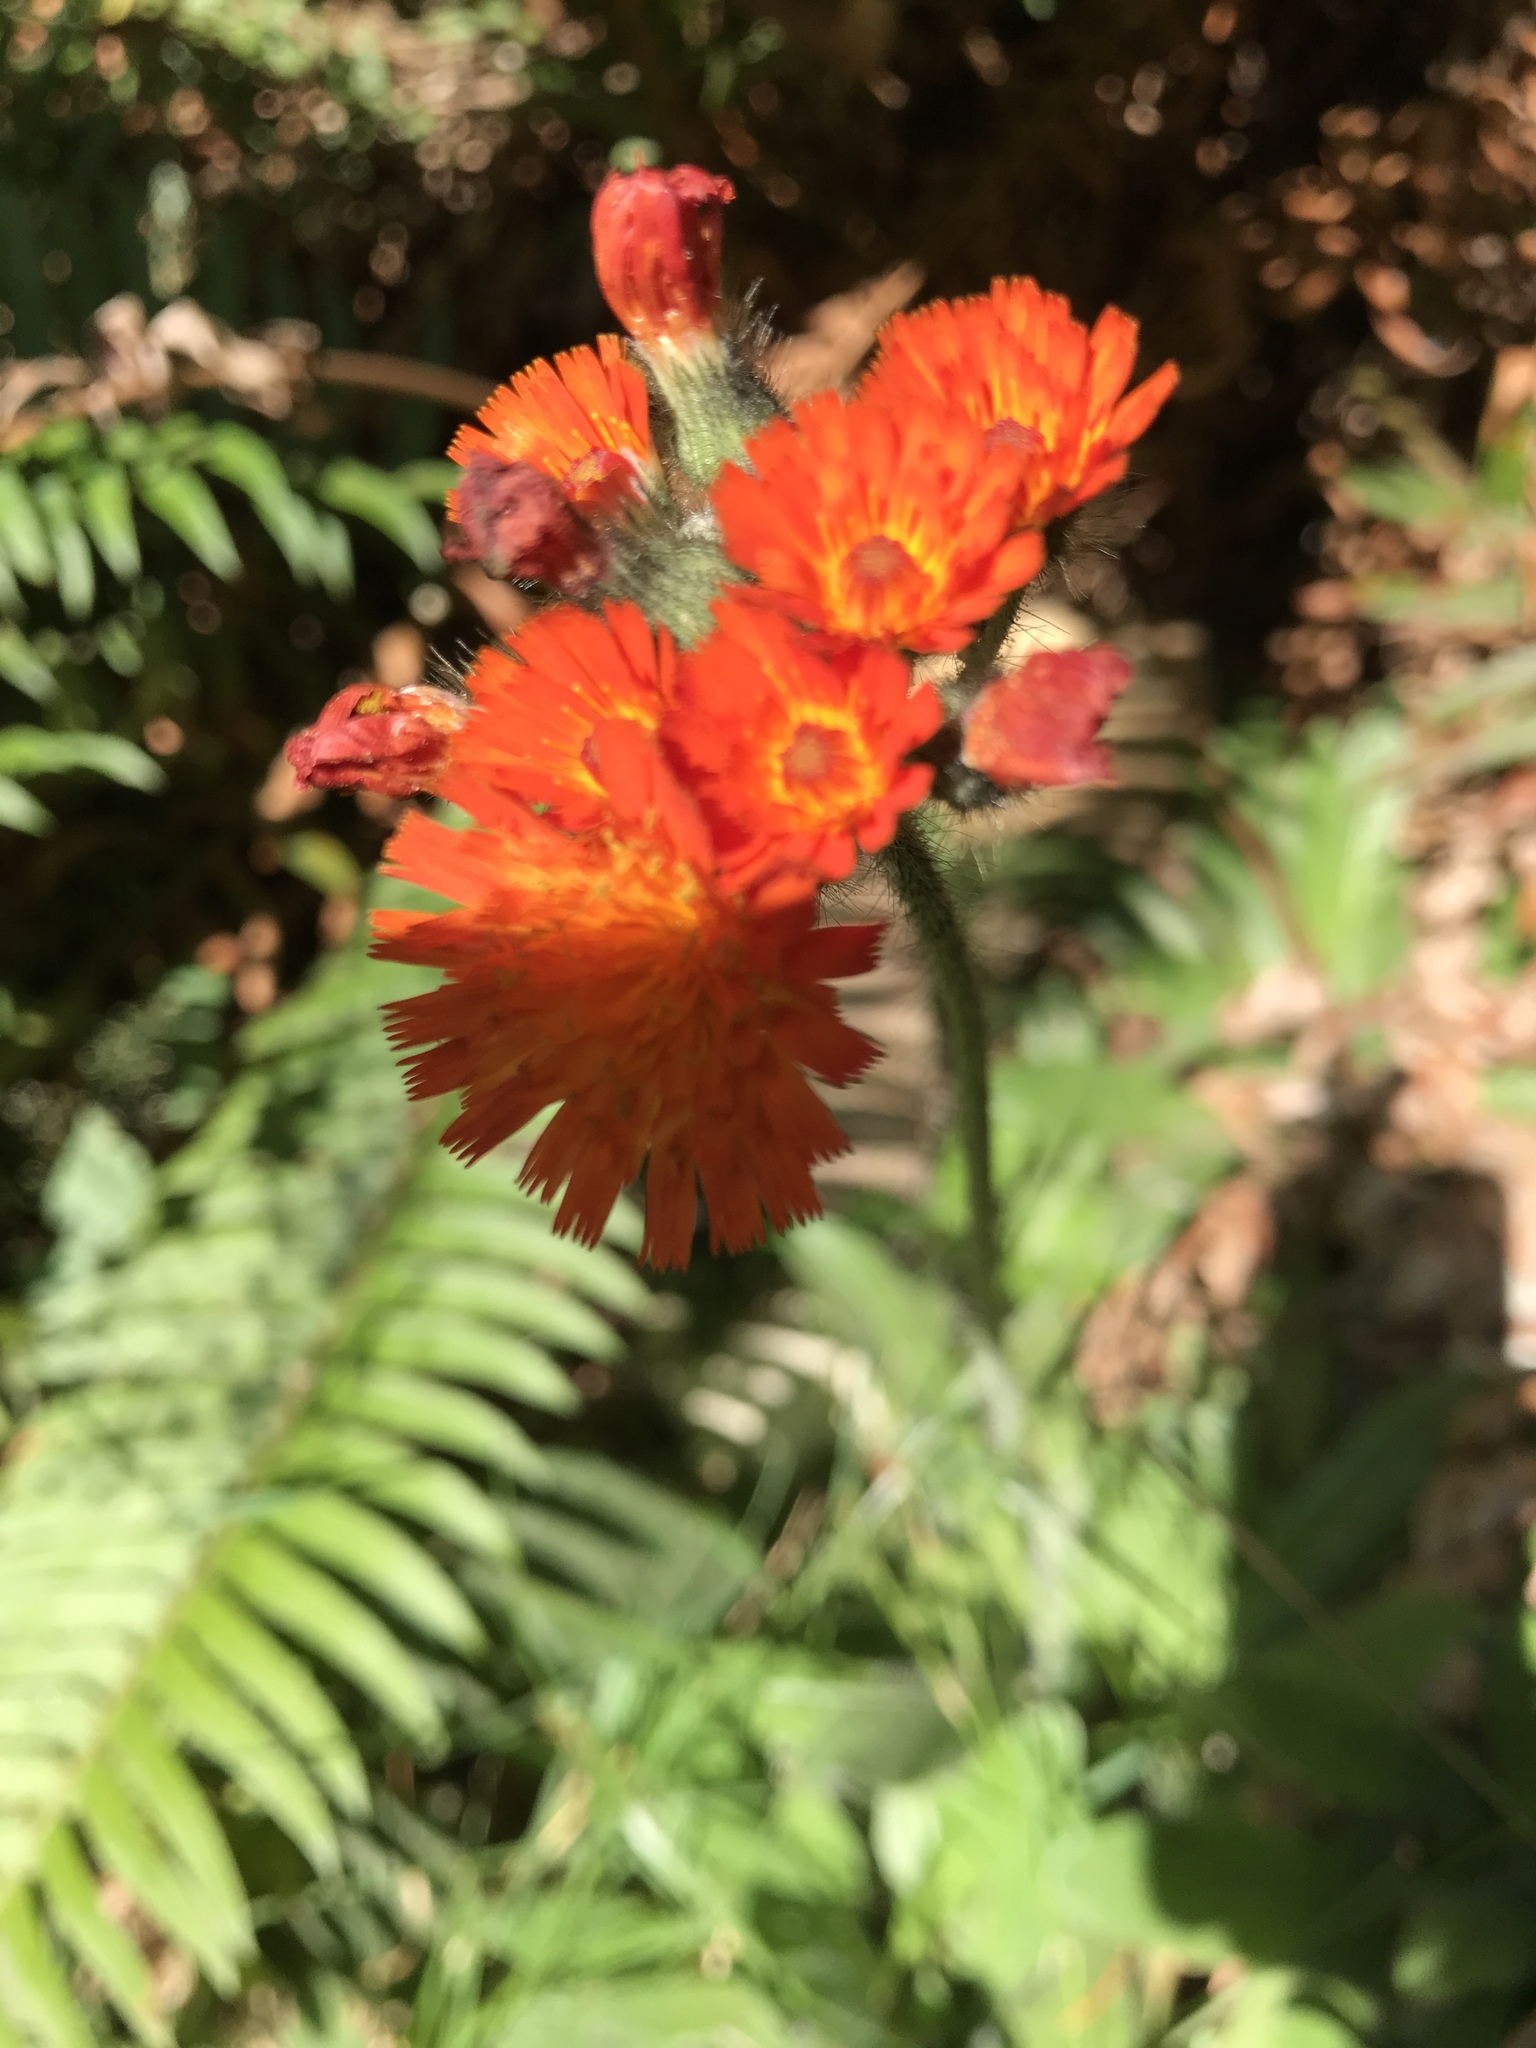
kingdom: Plantae
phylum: Tracheophyta
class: Magnoliopsida
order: Asterales
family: Asteraceae
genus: Pilosella
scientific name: Pilosella aurantiaca
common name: Fox-and-cubs
